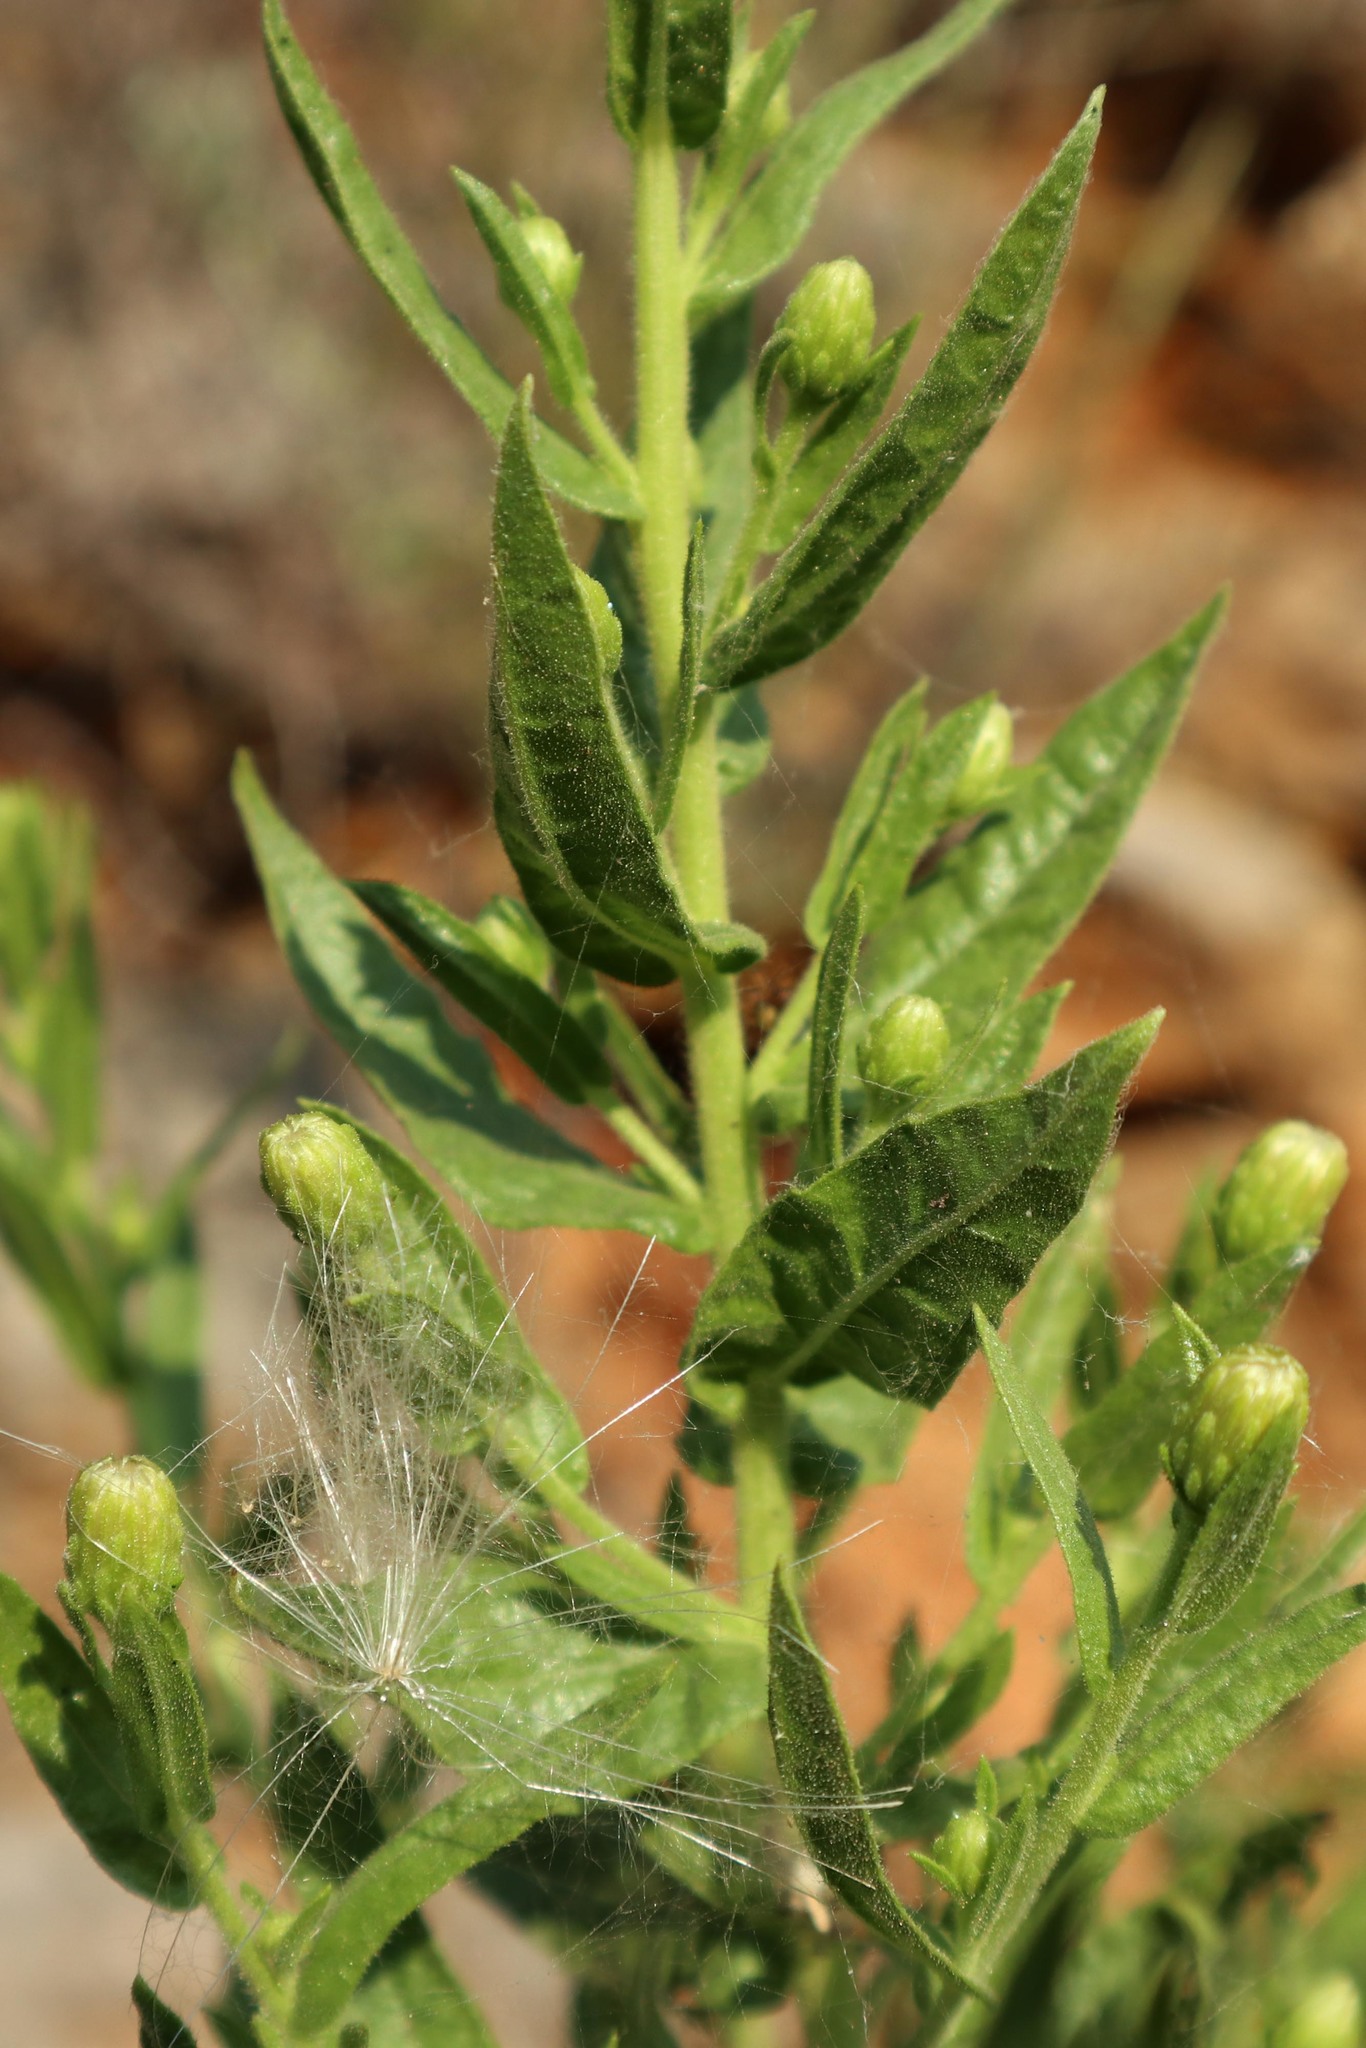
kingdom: Plantae
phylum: Tracheophyta
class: Magnoliopsida
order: Asterales
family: Asteraceae
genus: Dittrichia
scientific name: Dittrichia viscosa
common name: Woody fleabane
